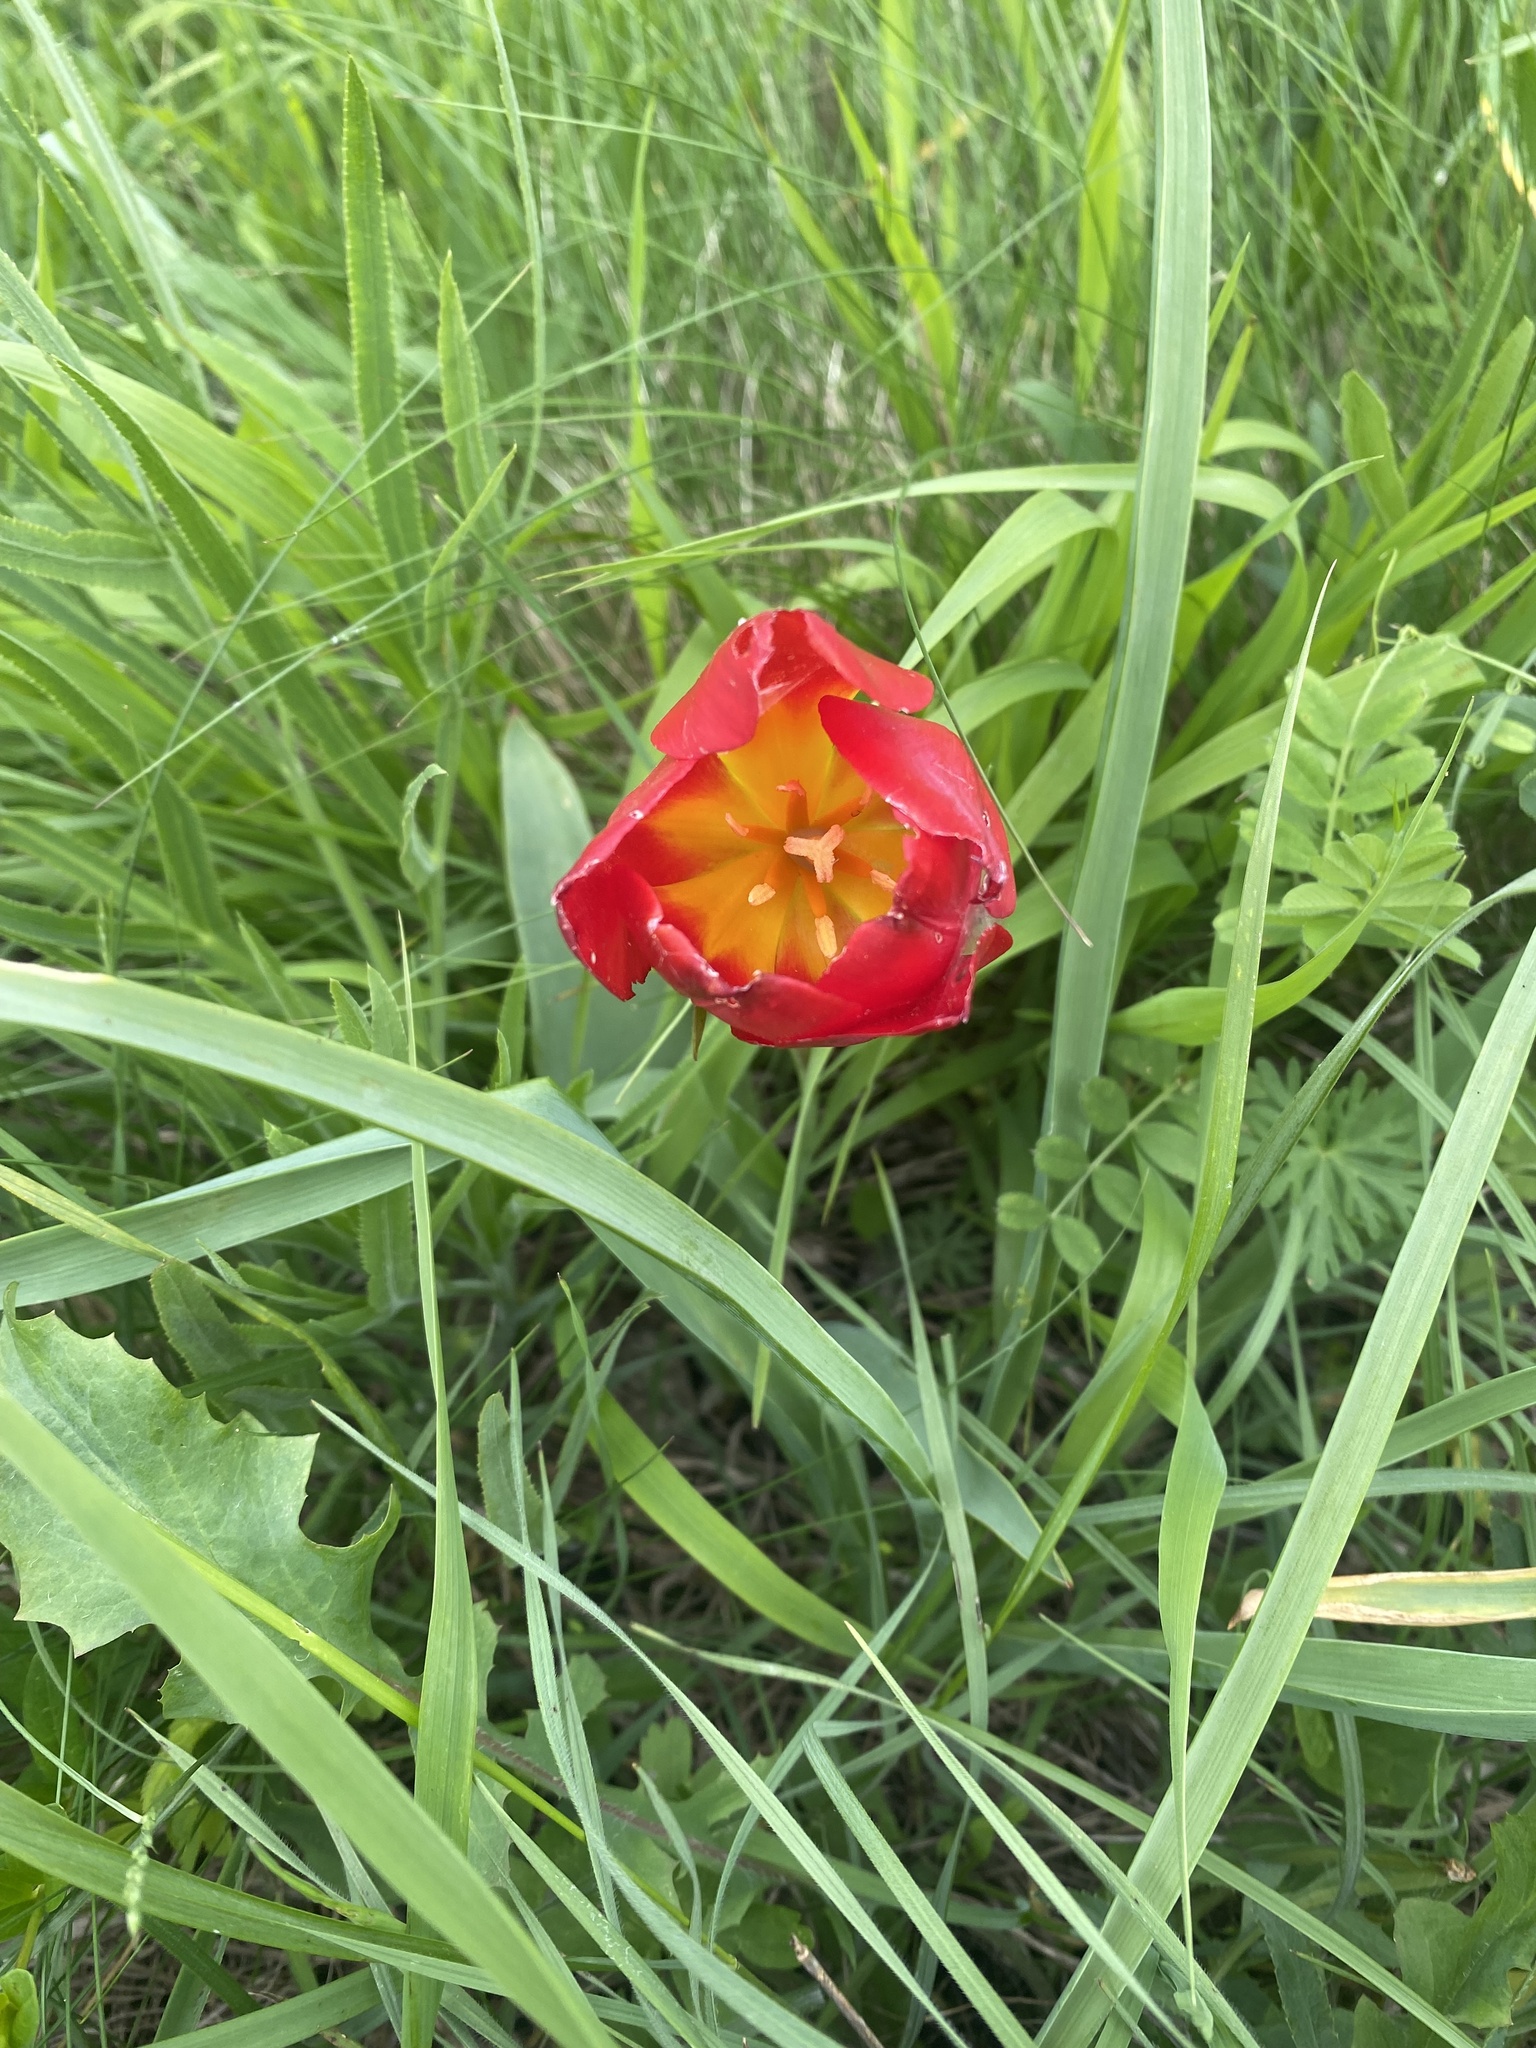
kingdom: Plantae
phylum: Tracheophyta
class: Liliopsida
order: Liliales
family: Liliaceae
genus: Tulipa
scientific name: Tulipa suaveolens
